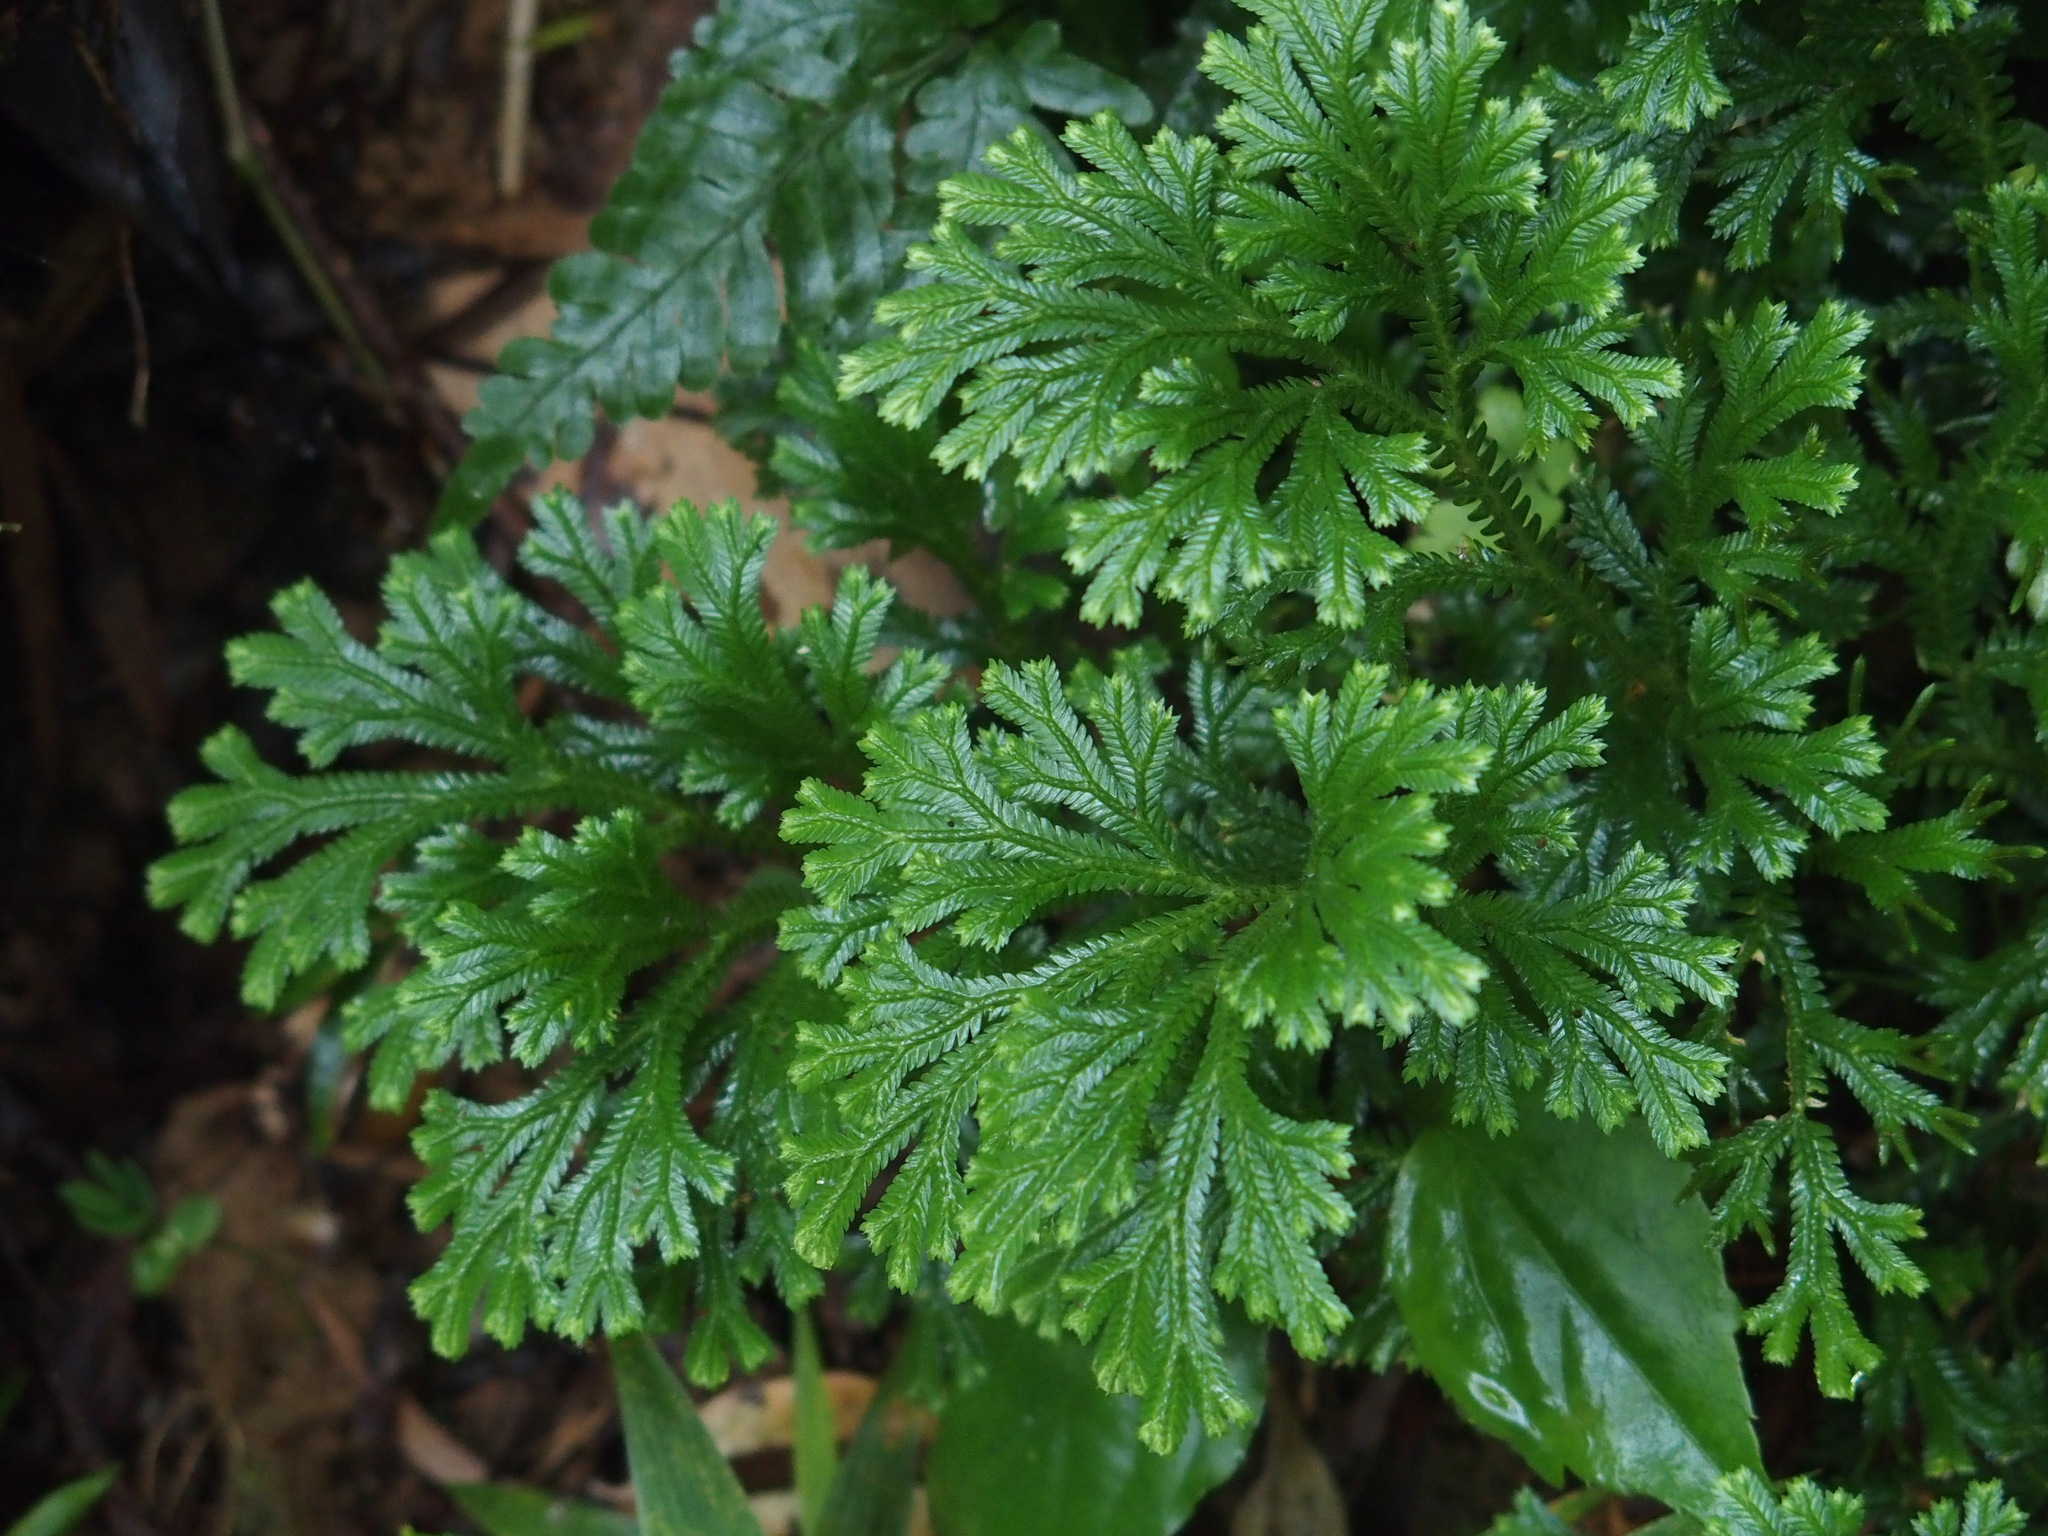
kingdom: Plantae
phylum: Tracheophyta
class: Lycopodiopsida
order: Selaginellales
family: Selaginellaceae
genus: Selaginella
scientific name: Selaginella doederleinii
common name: Greater selaginella
